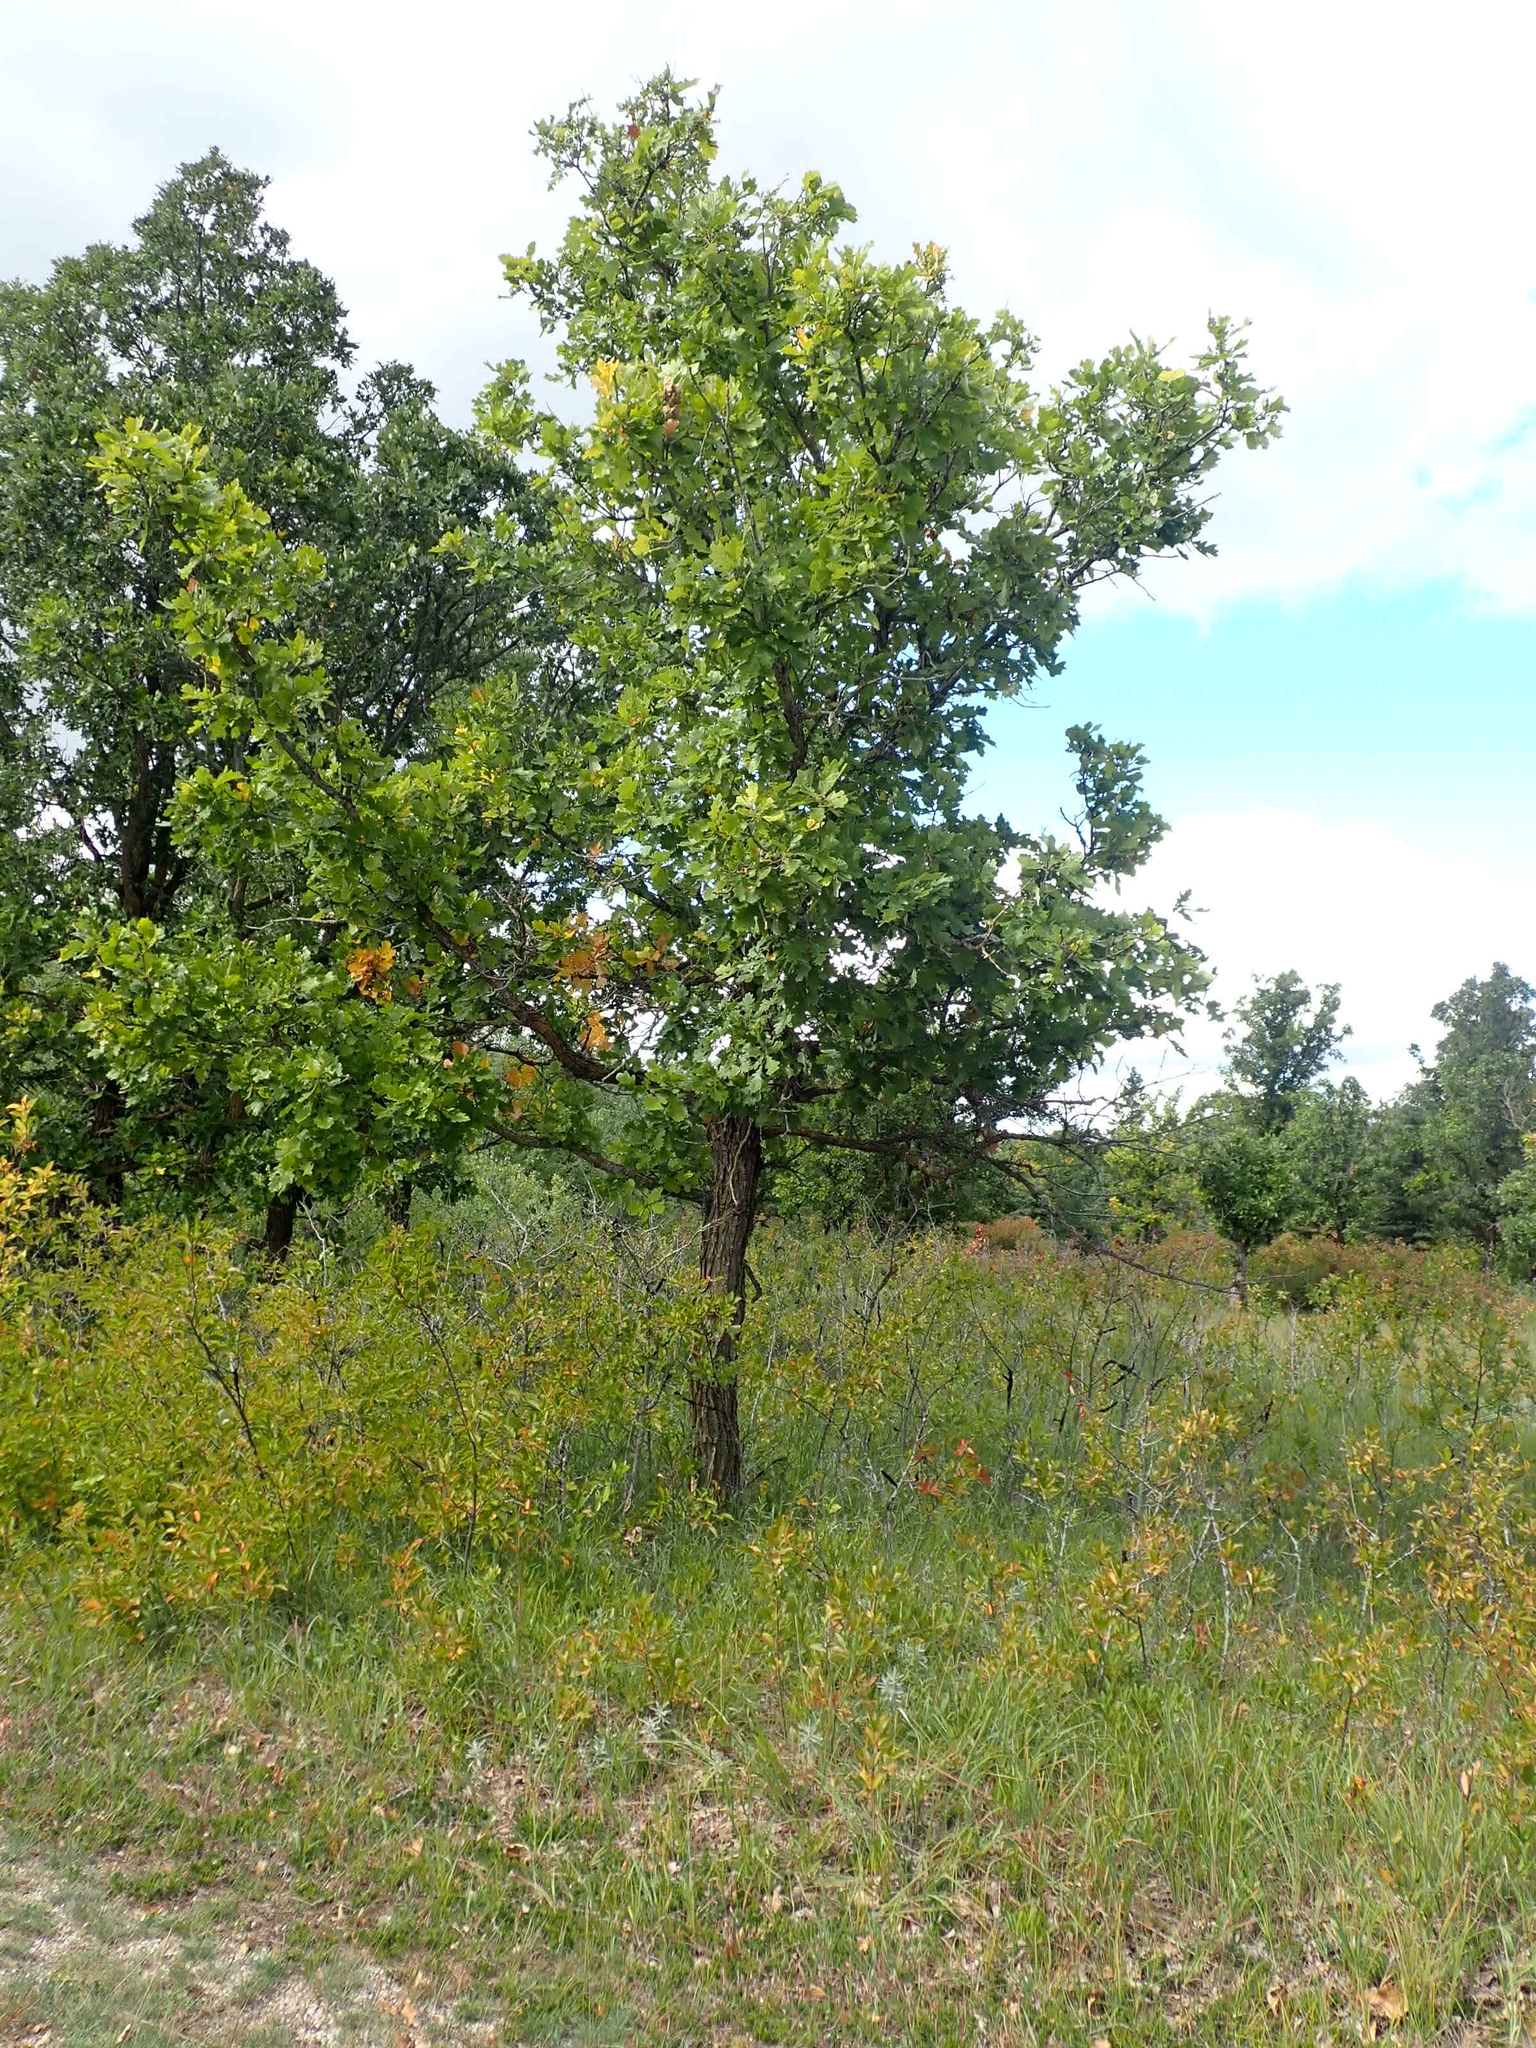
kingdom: Plantae
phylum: Tracheophyta
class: Magnoliopsida
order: Fagales
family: Fagaceae
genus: Quercus
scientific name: Quercus macrocarpa
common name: Bur oak
